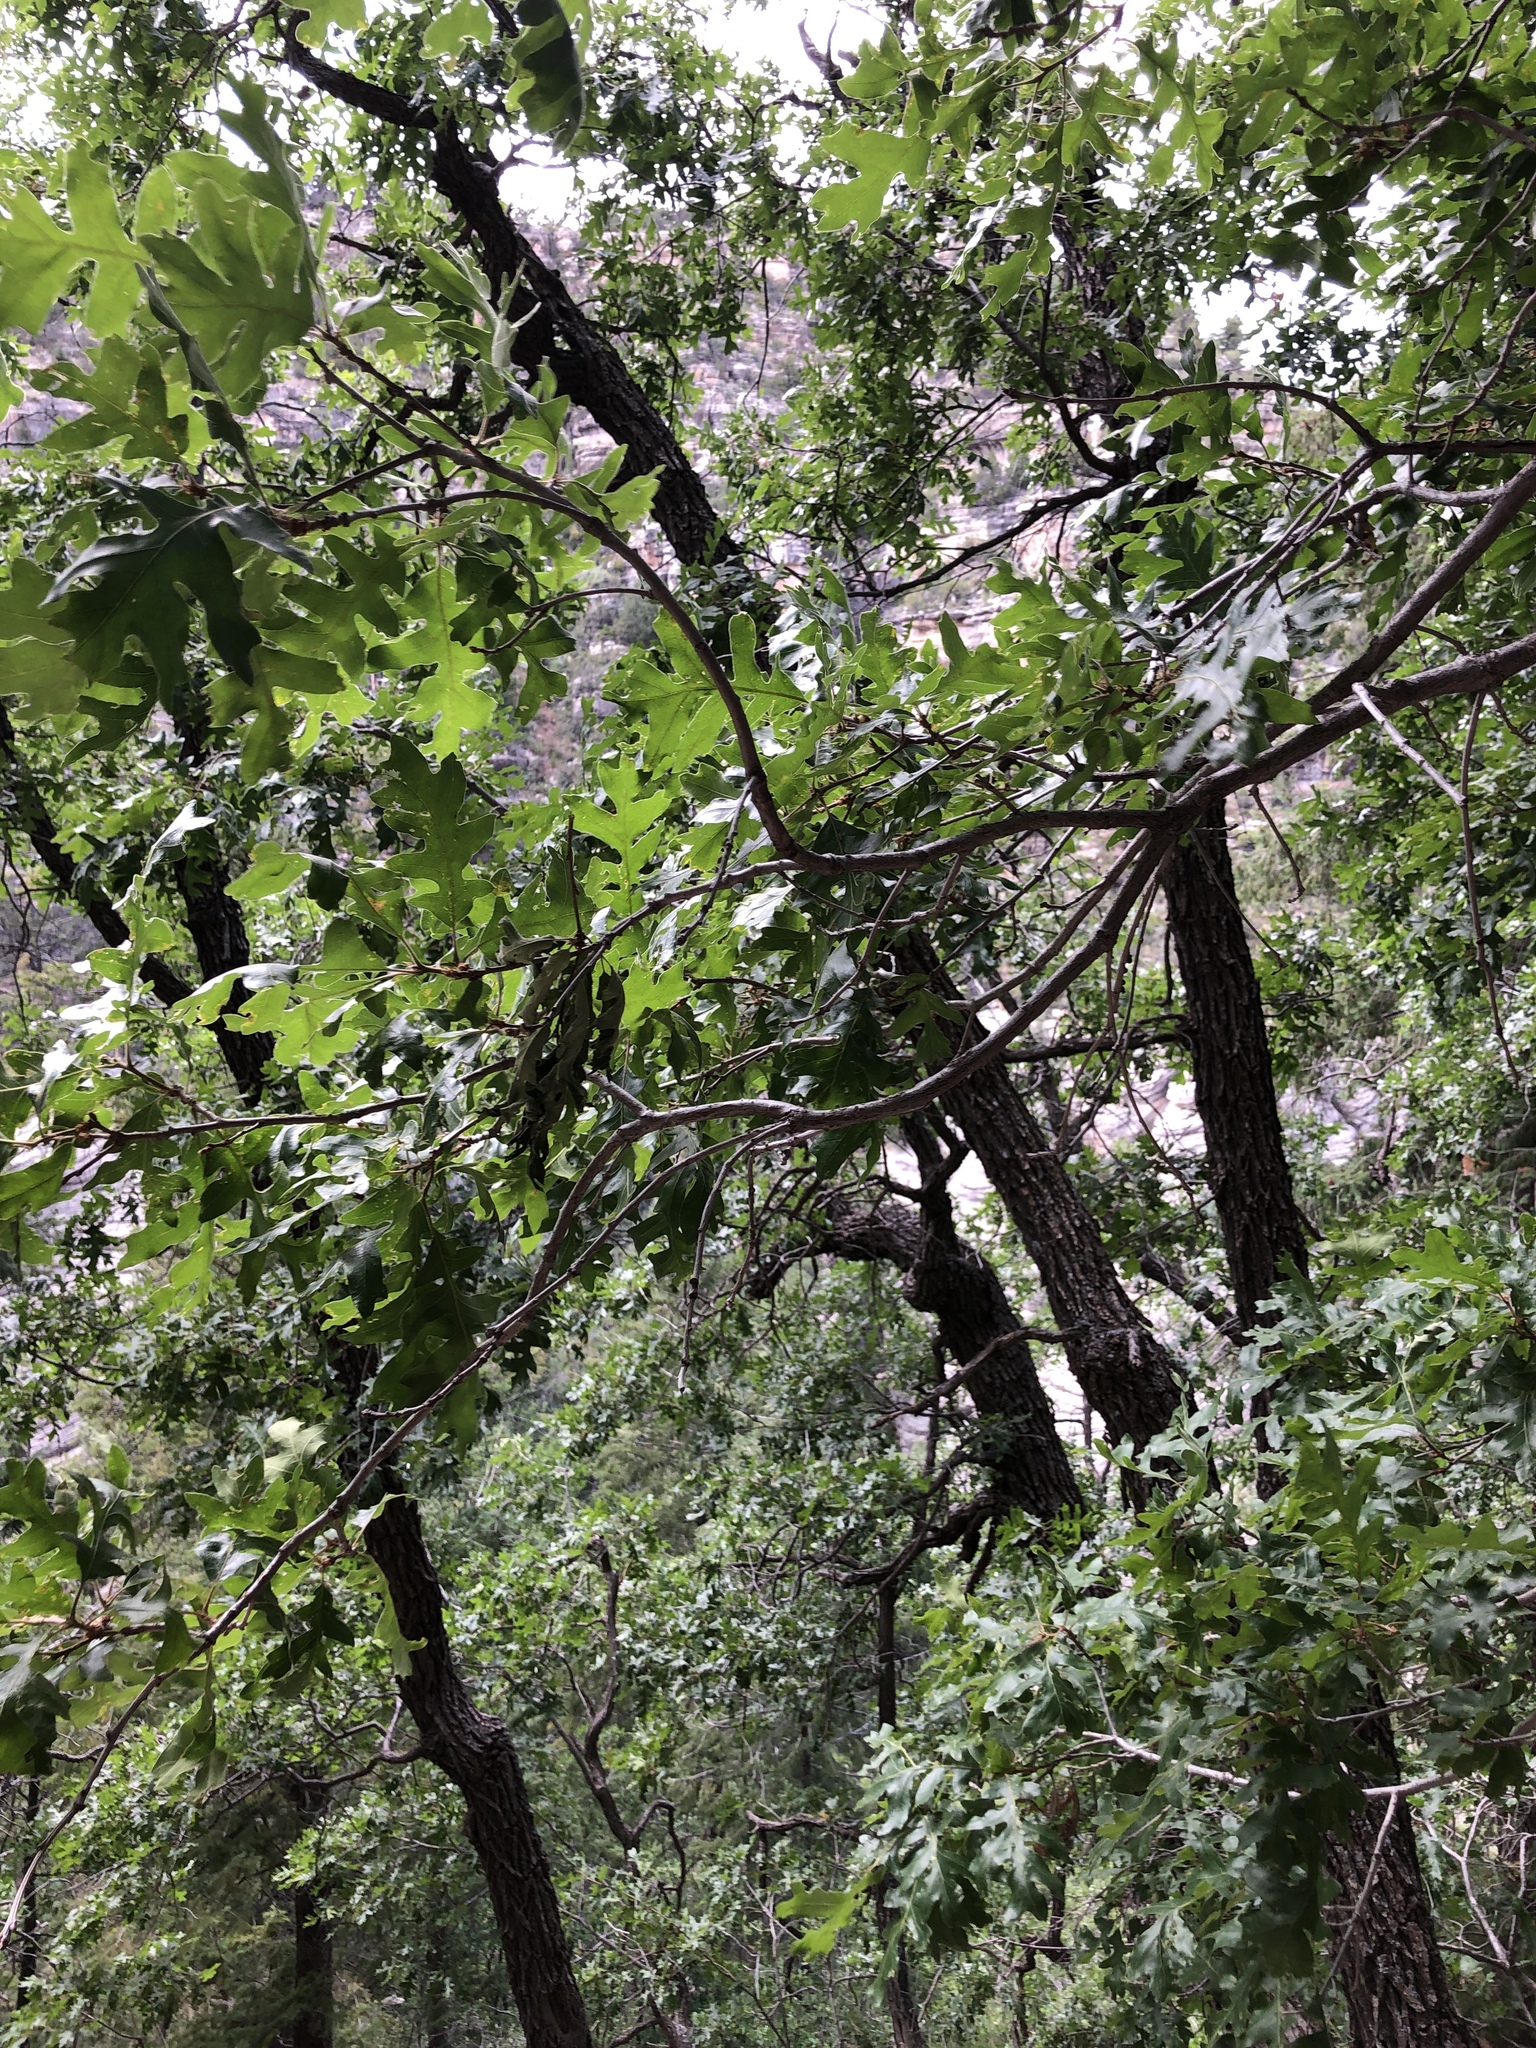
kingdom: Plantae
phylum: Tracheophyta
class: Magnoliopsida
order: Fagales
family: Fagaceae
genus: Quercus
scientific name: Quercus gambelii
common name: Gambel oak
